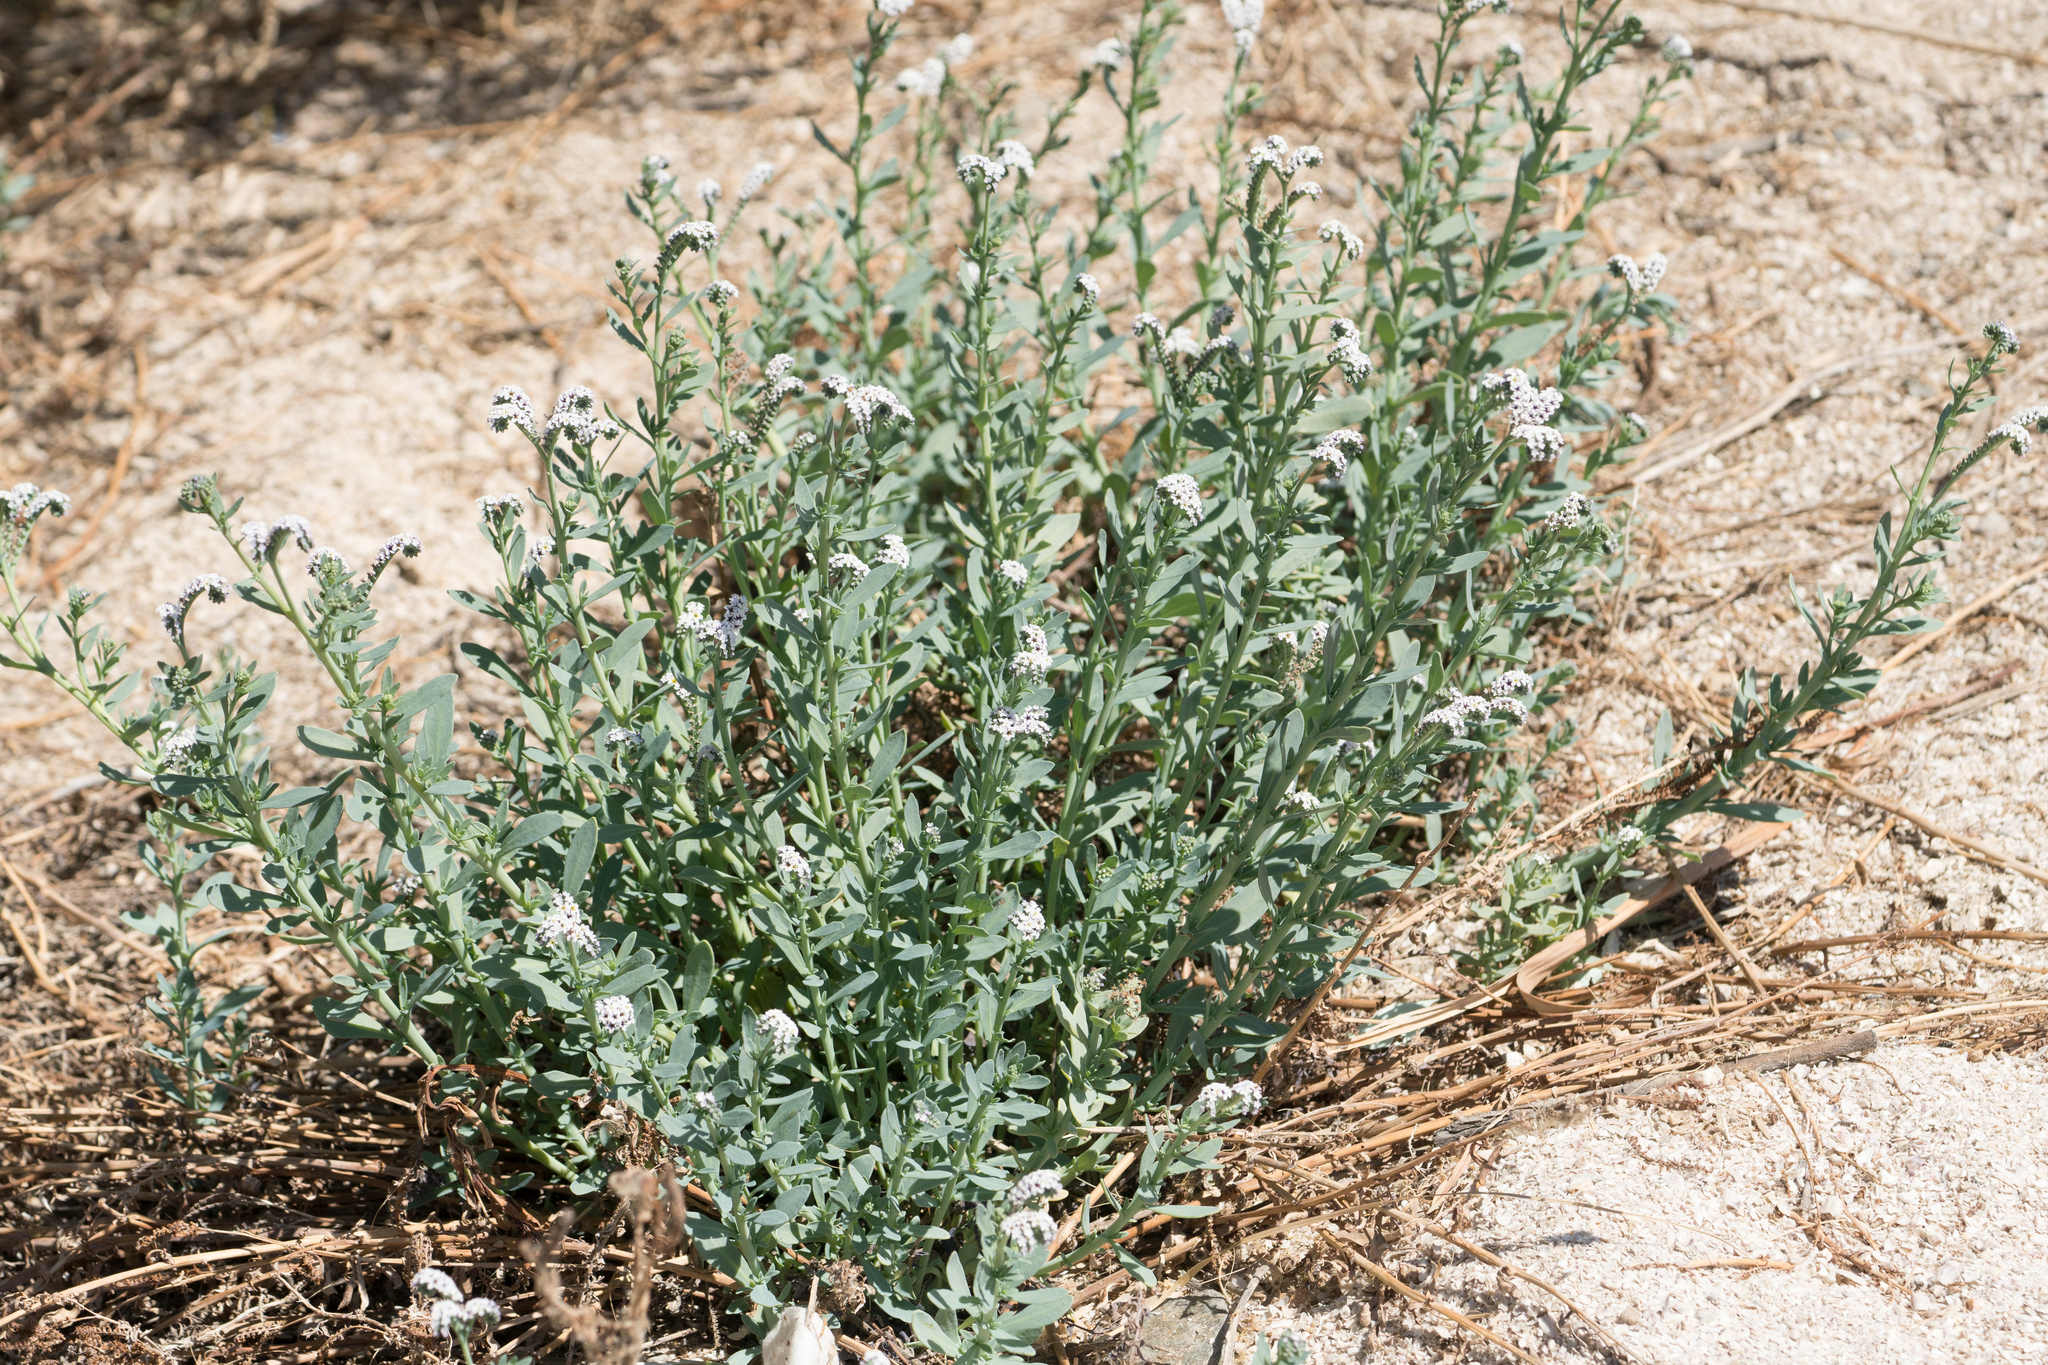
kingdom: Plantae
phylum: Tracheophyta
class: Magnoliopsida
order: Boraginales
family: Heliotropiaceae
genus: Heliotropium
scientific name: Heliotropium curassavicum
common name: Seaside heliotrope
